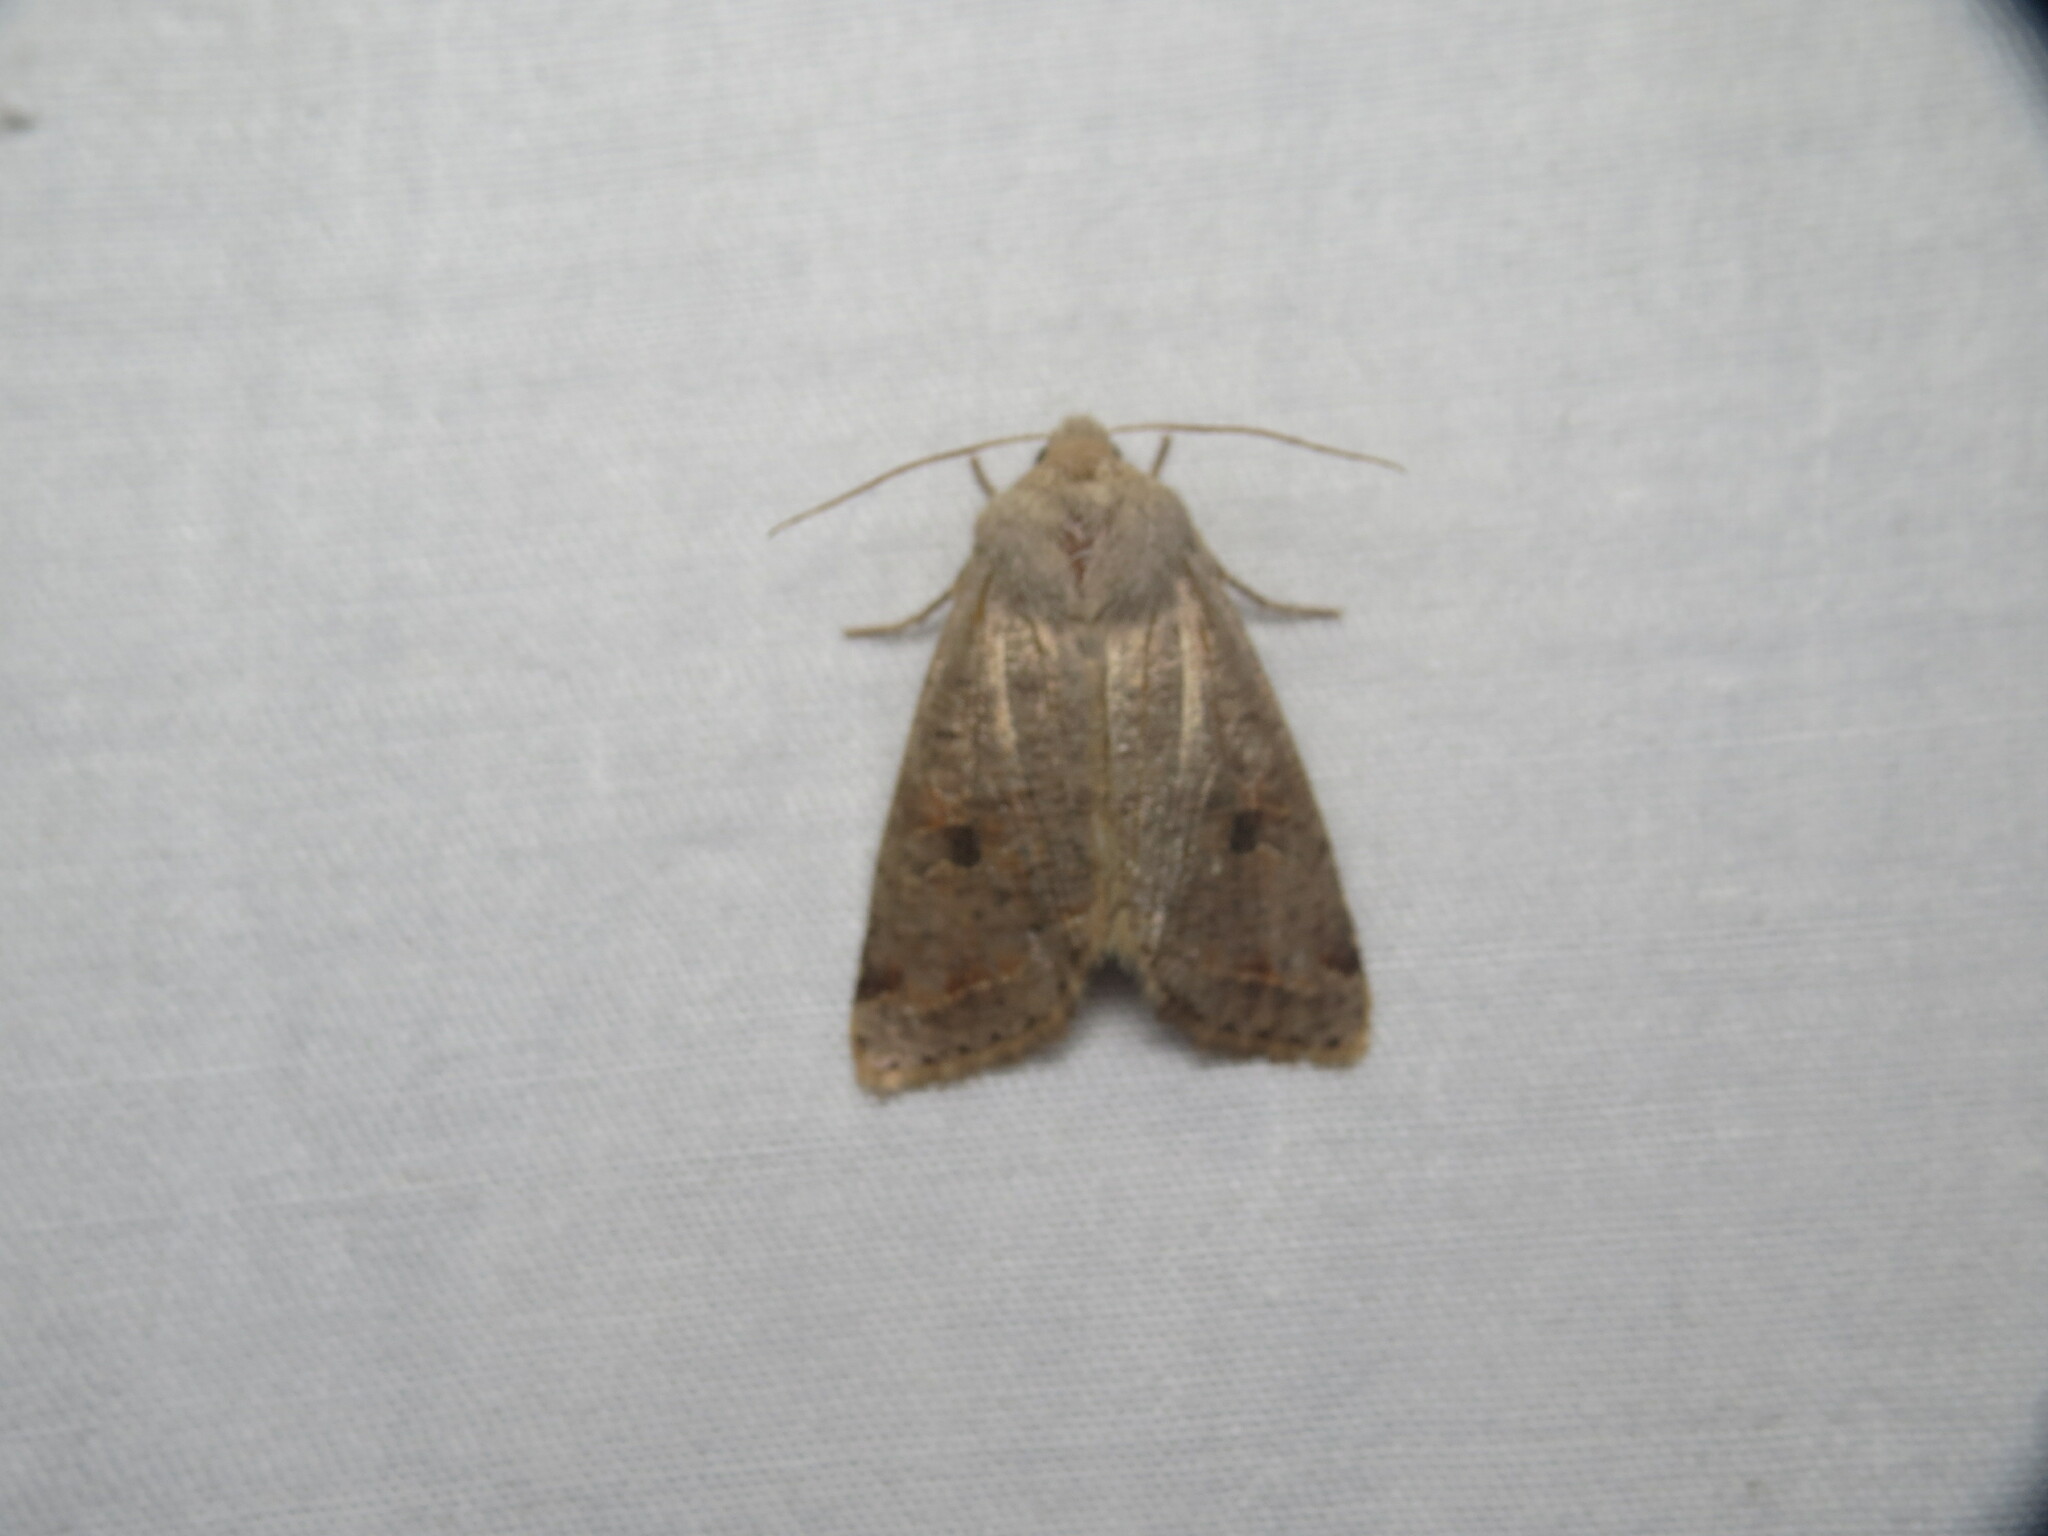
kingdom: Animalia
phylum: Arthropoda
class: Insecta
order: Lepidoptera
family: Noctuidae
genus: Orthosia
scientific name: Orthosia hibisci
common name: Green fruitworm
